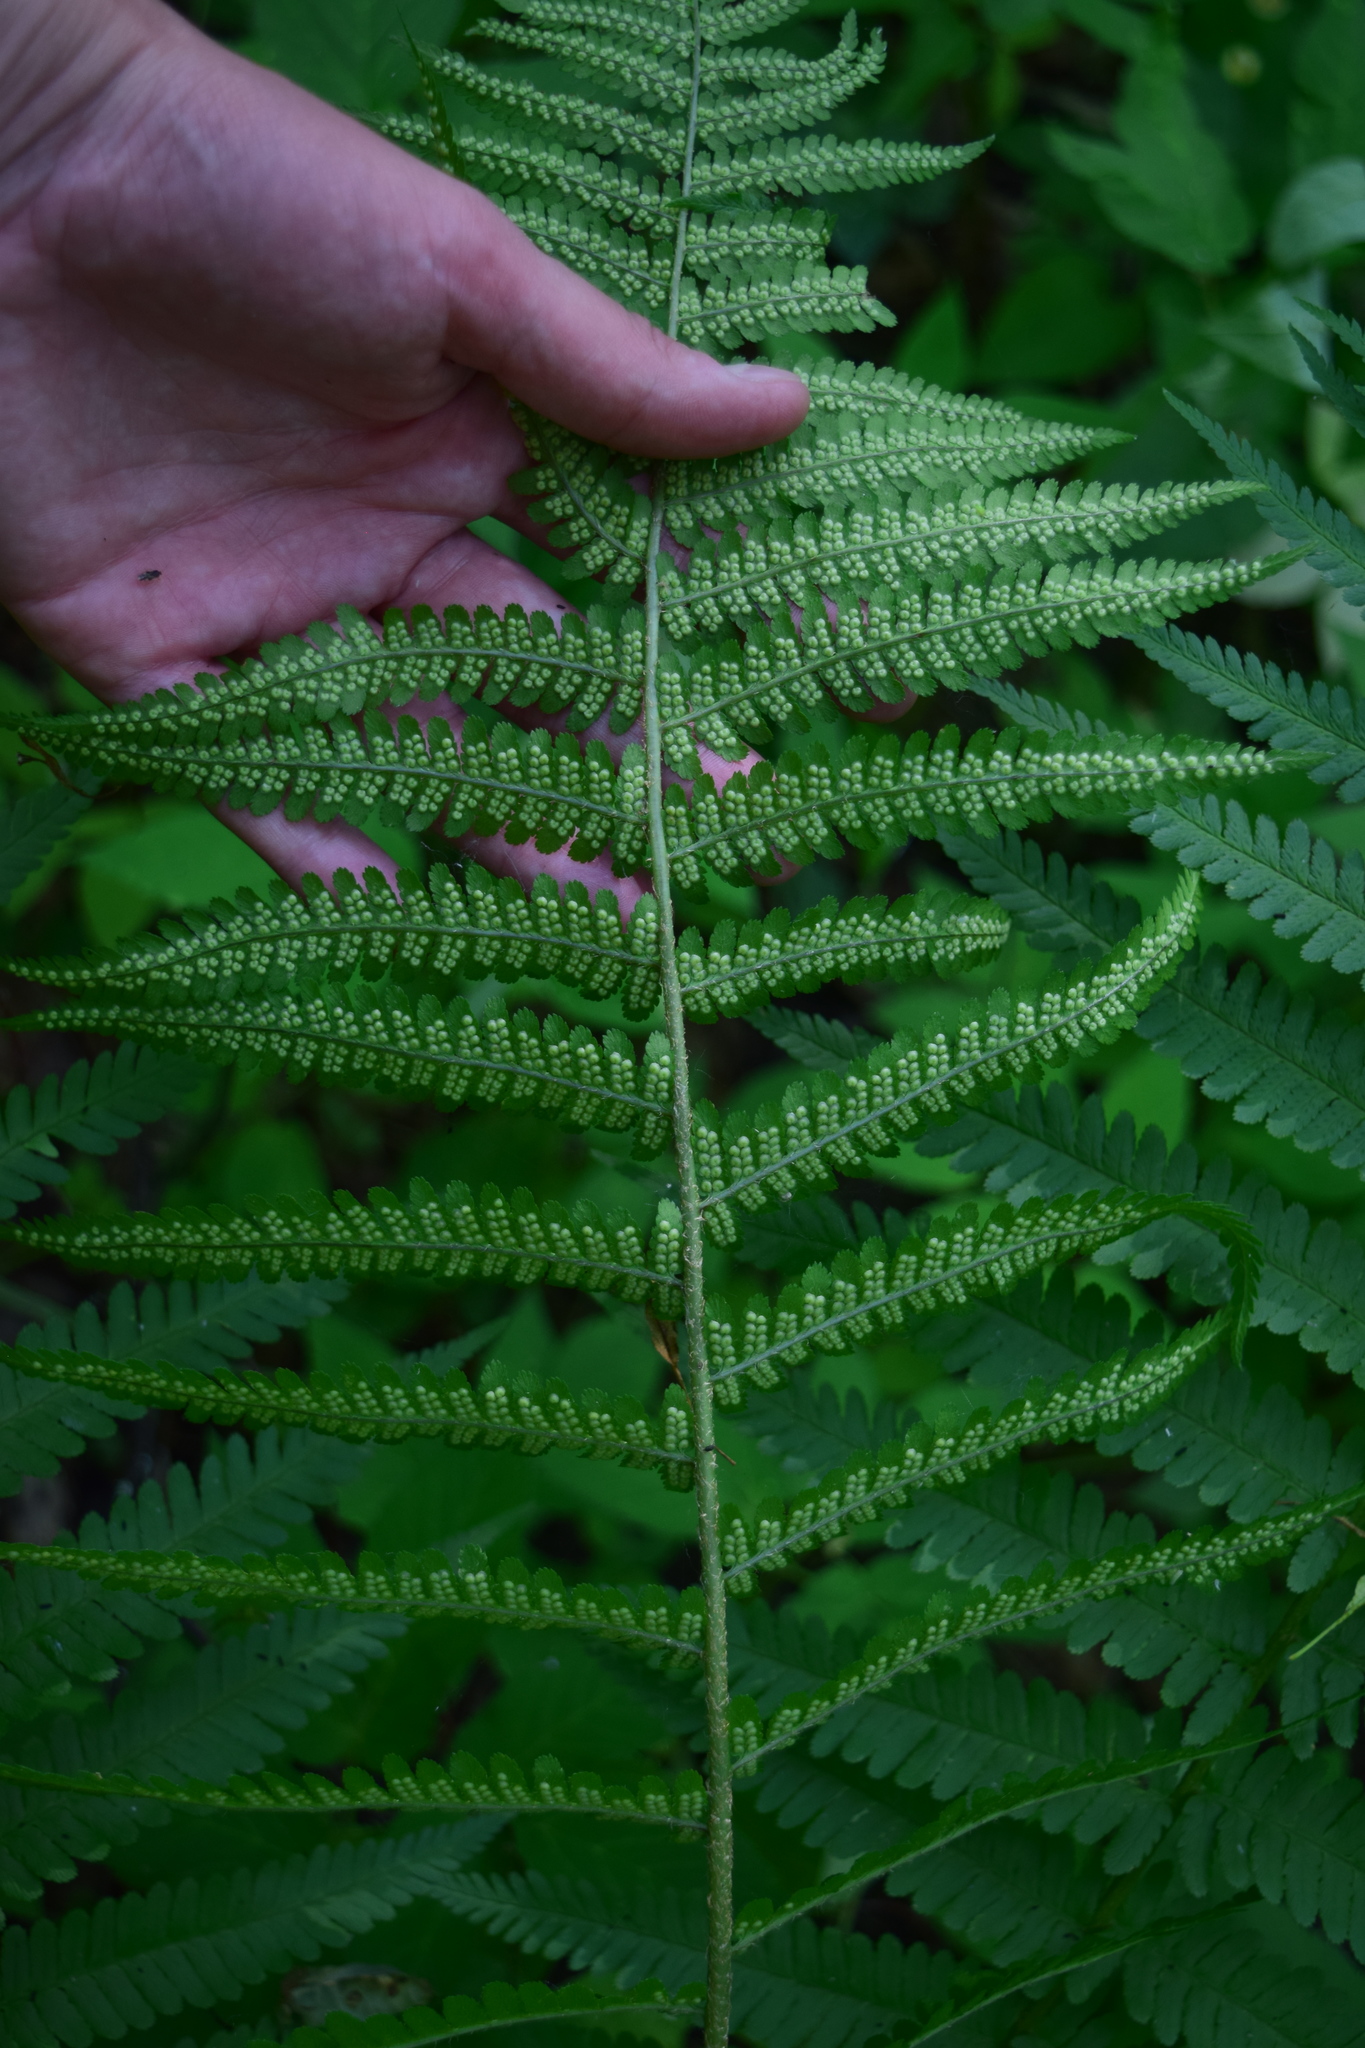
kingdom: Plantae
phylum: Tracheophyta
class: Polypodiopsida
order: Polypodiales
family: Dryopteridaceae
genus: Dryopteris
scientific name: Dryopteris filix-mas
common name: Male fern
